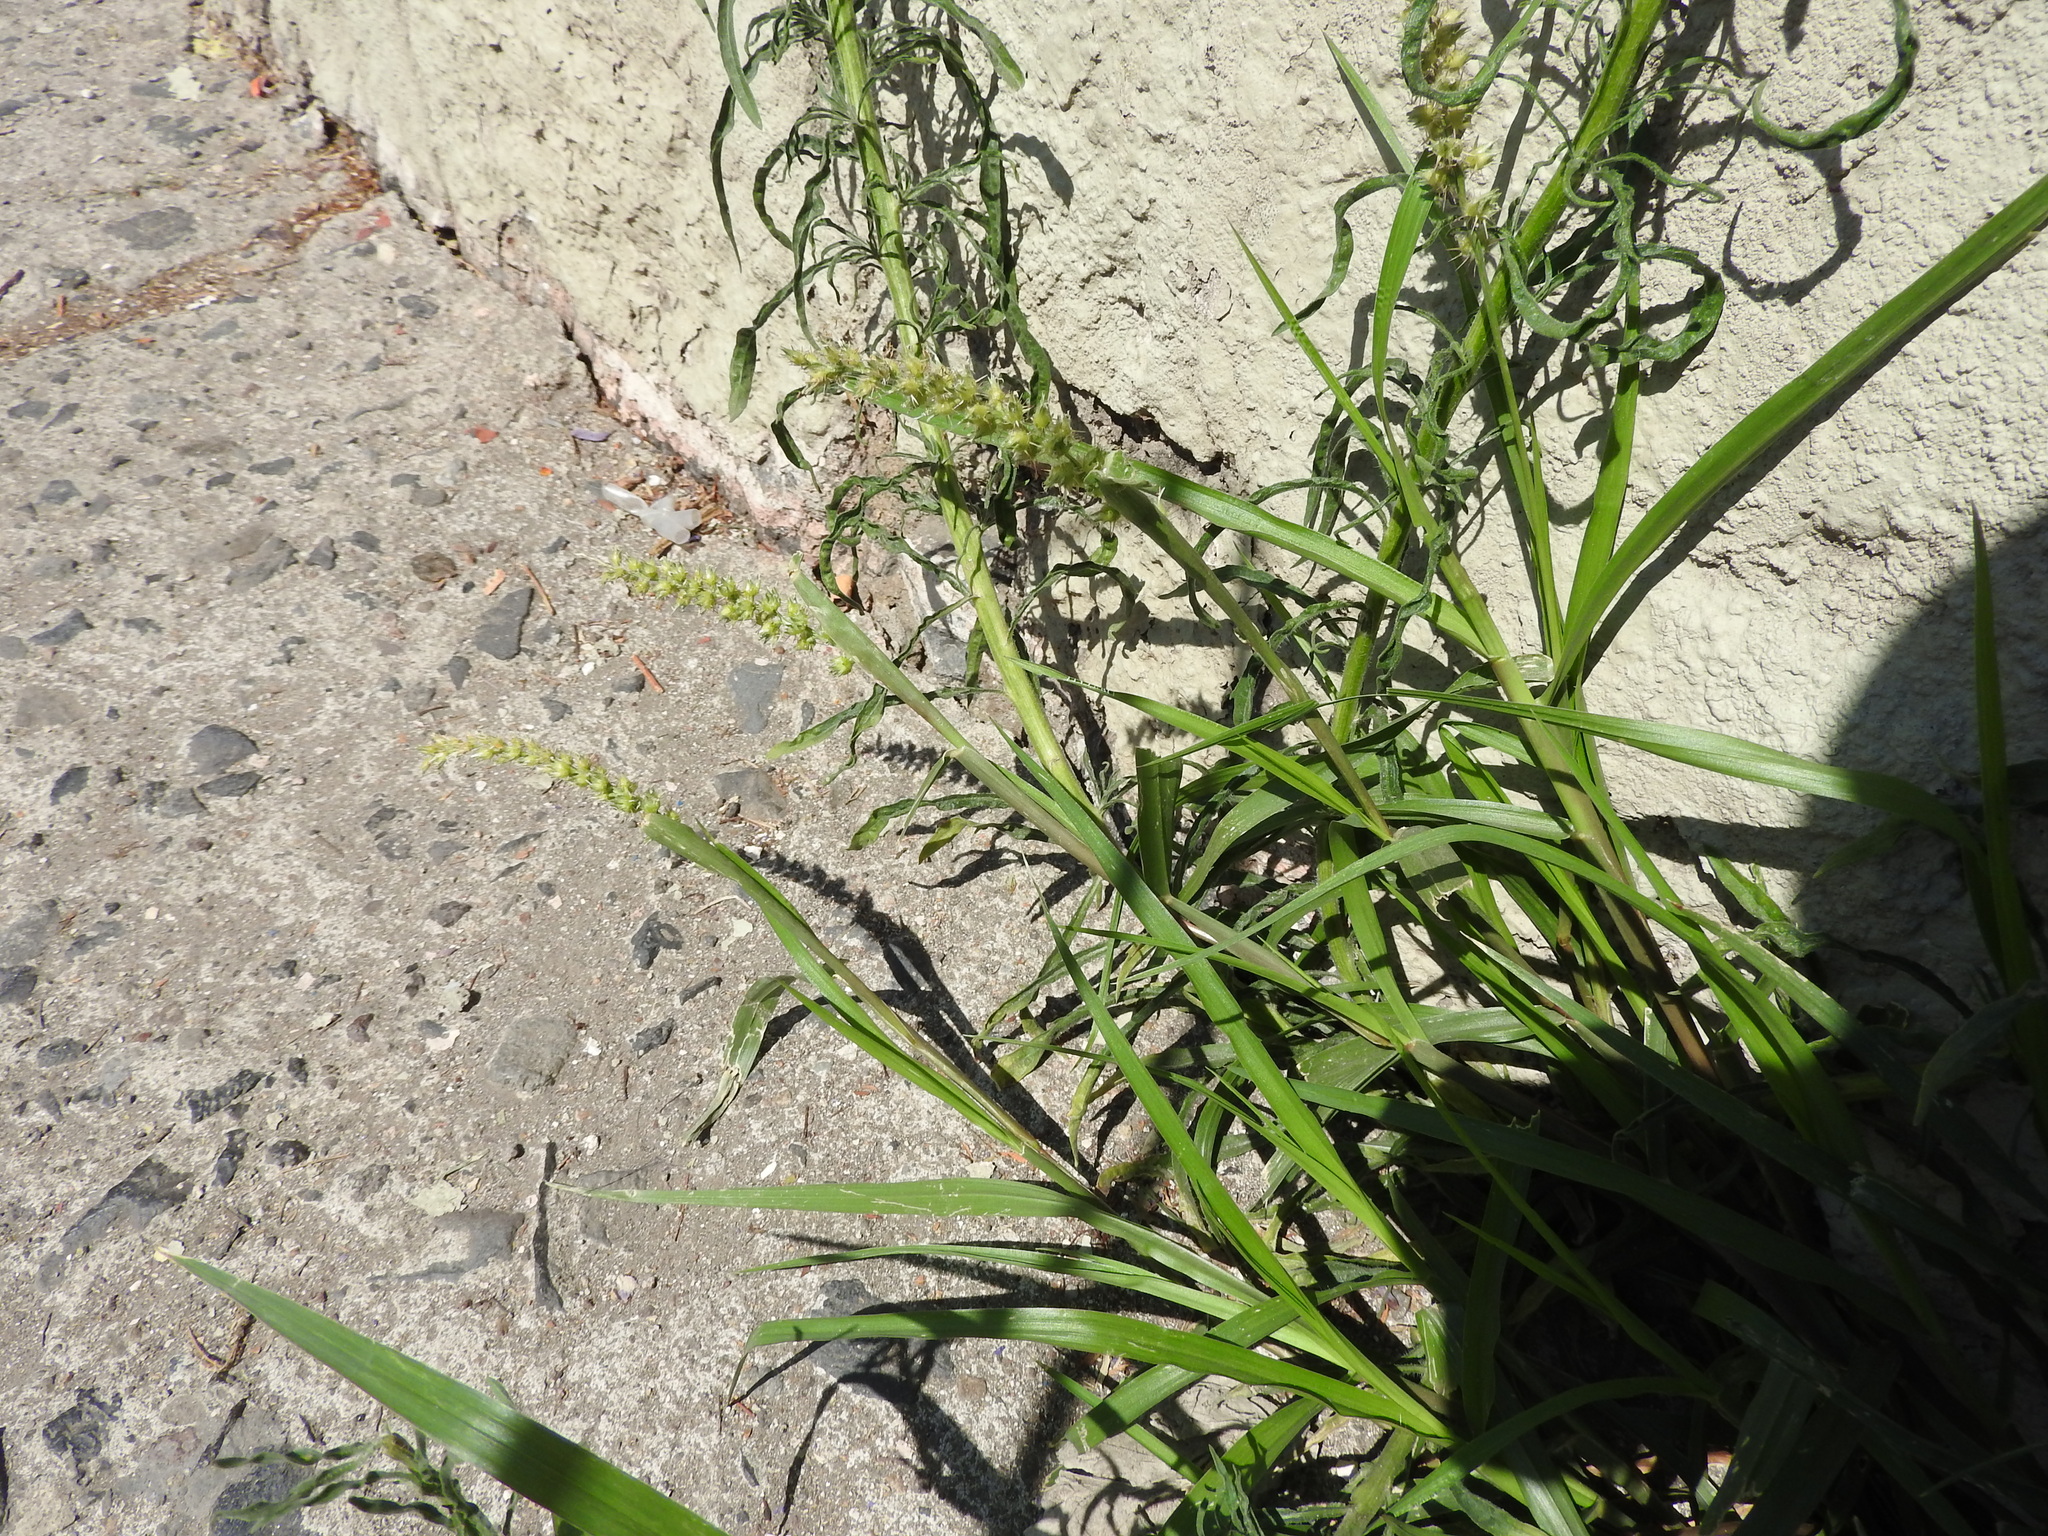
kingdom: Plantae
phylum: Tracheophyta
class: Liliopsida
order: Poales
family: Poaceae
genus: Cenchrus
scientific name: Cenchrus echinatus
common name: Southern sandbur
